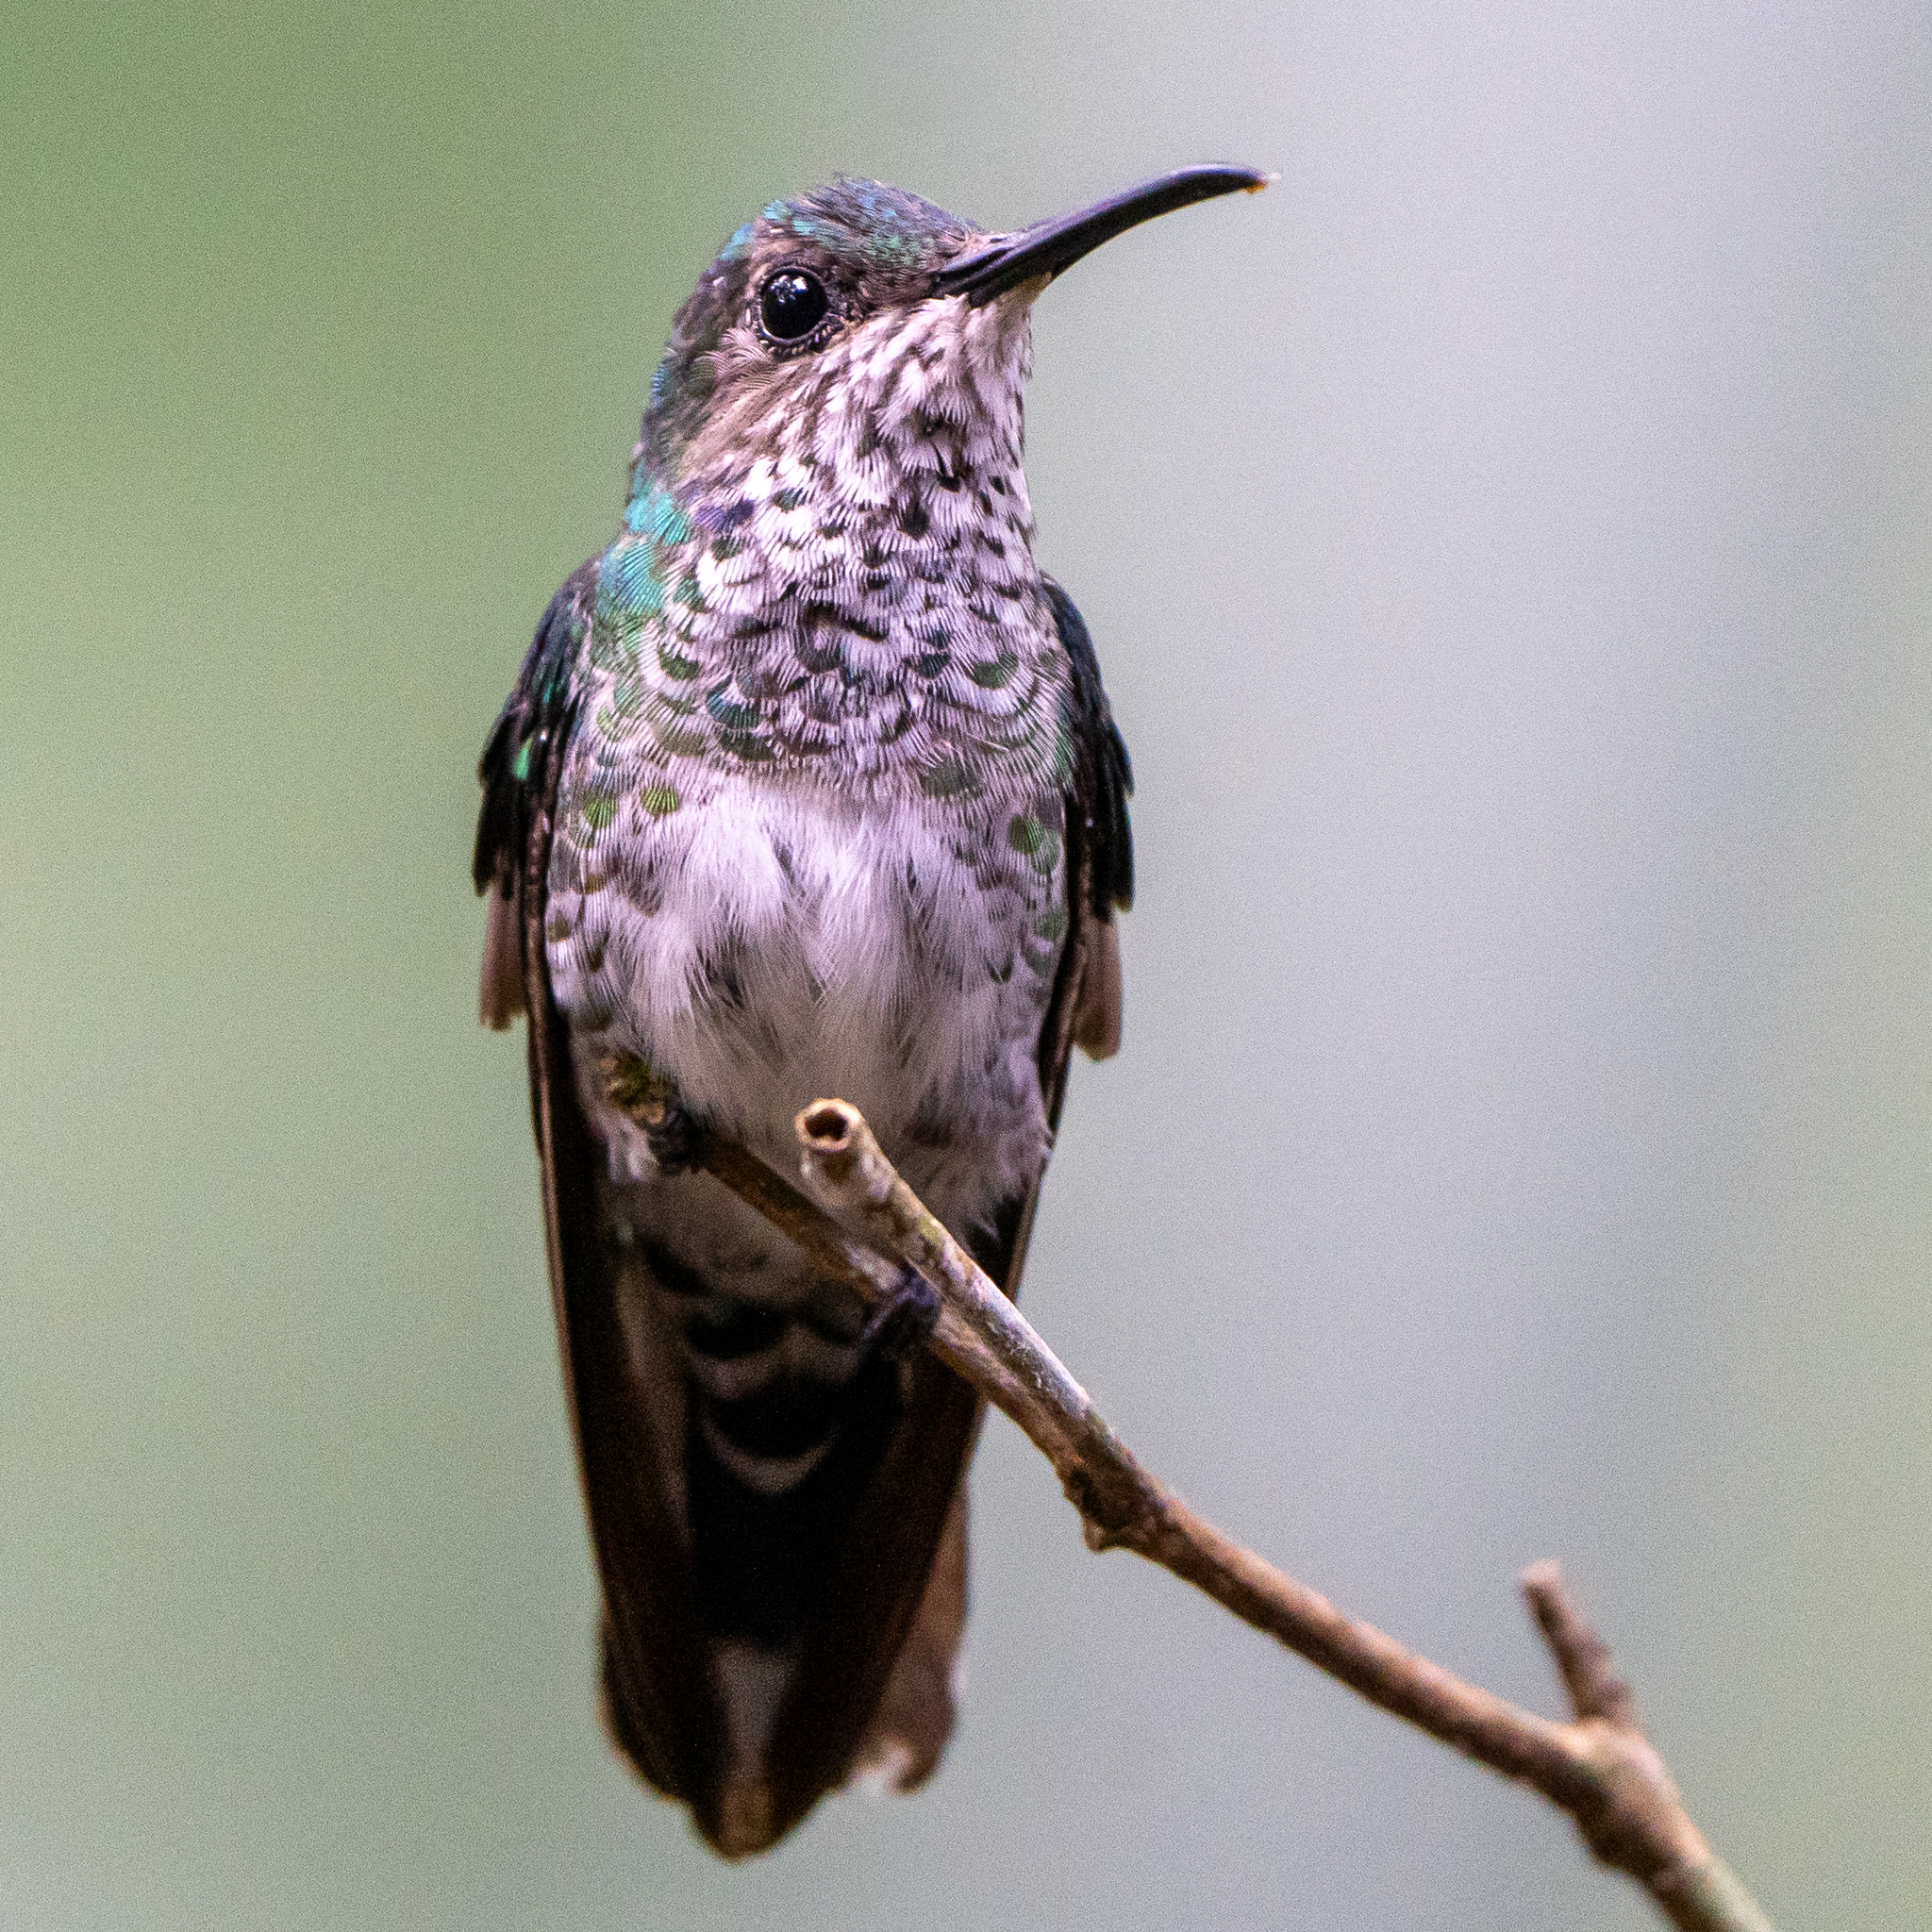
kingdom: Animalia
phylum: Chordata
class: Aves
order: Apodiformes
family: Trochilidae
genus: Florisuga
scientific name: Florisuga mellivora
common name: White-necked jacobin
